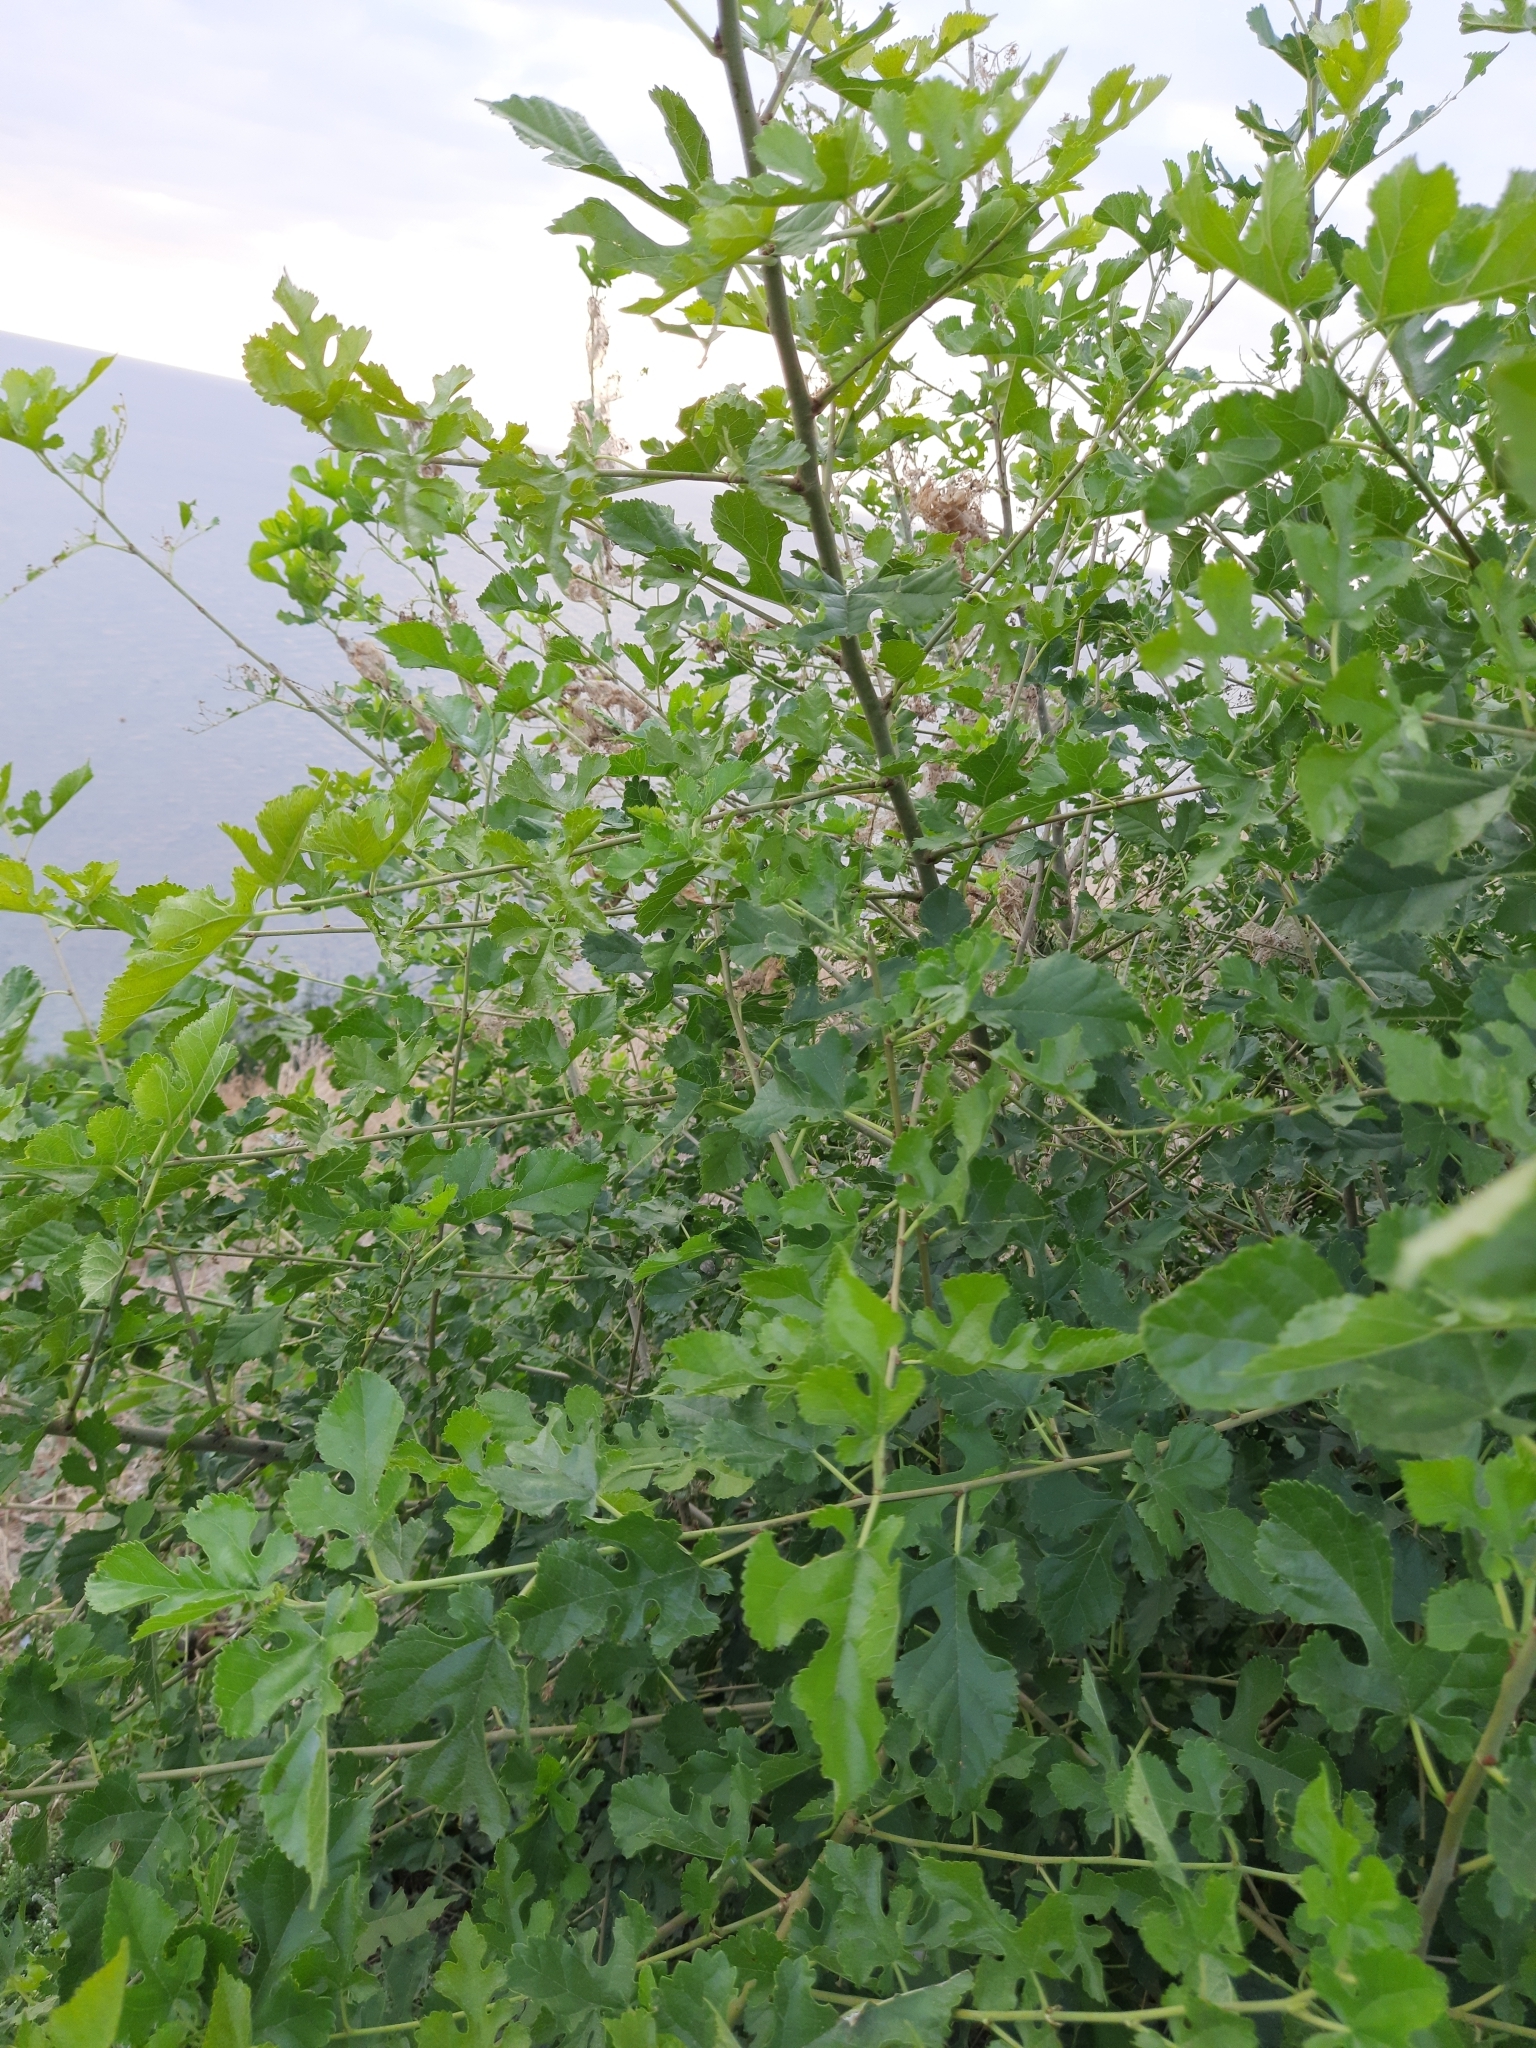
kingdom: Plantae
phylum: Tracheophyta
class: Magnoliopsida
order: Rosales
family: Moraceae
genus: Morus
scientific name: Morus alba
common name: White mulberry
